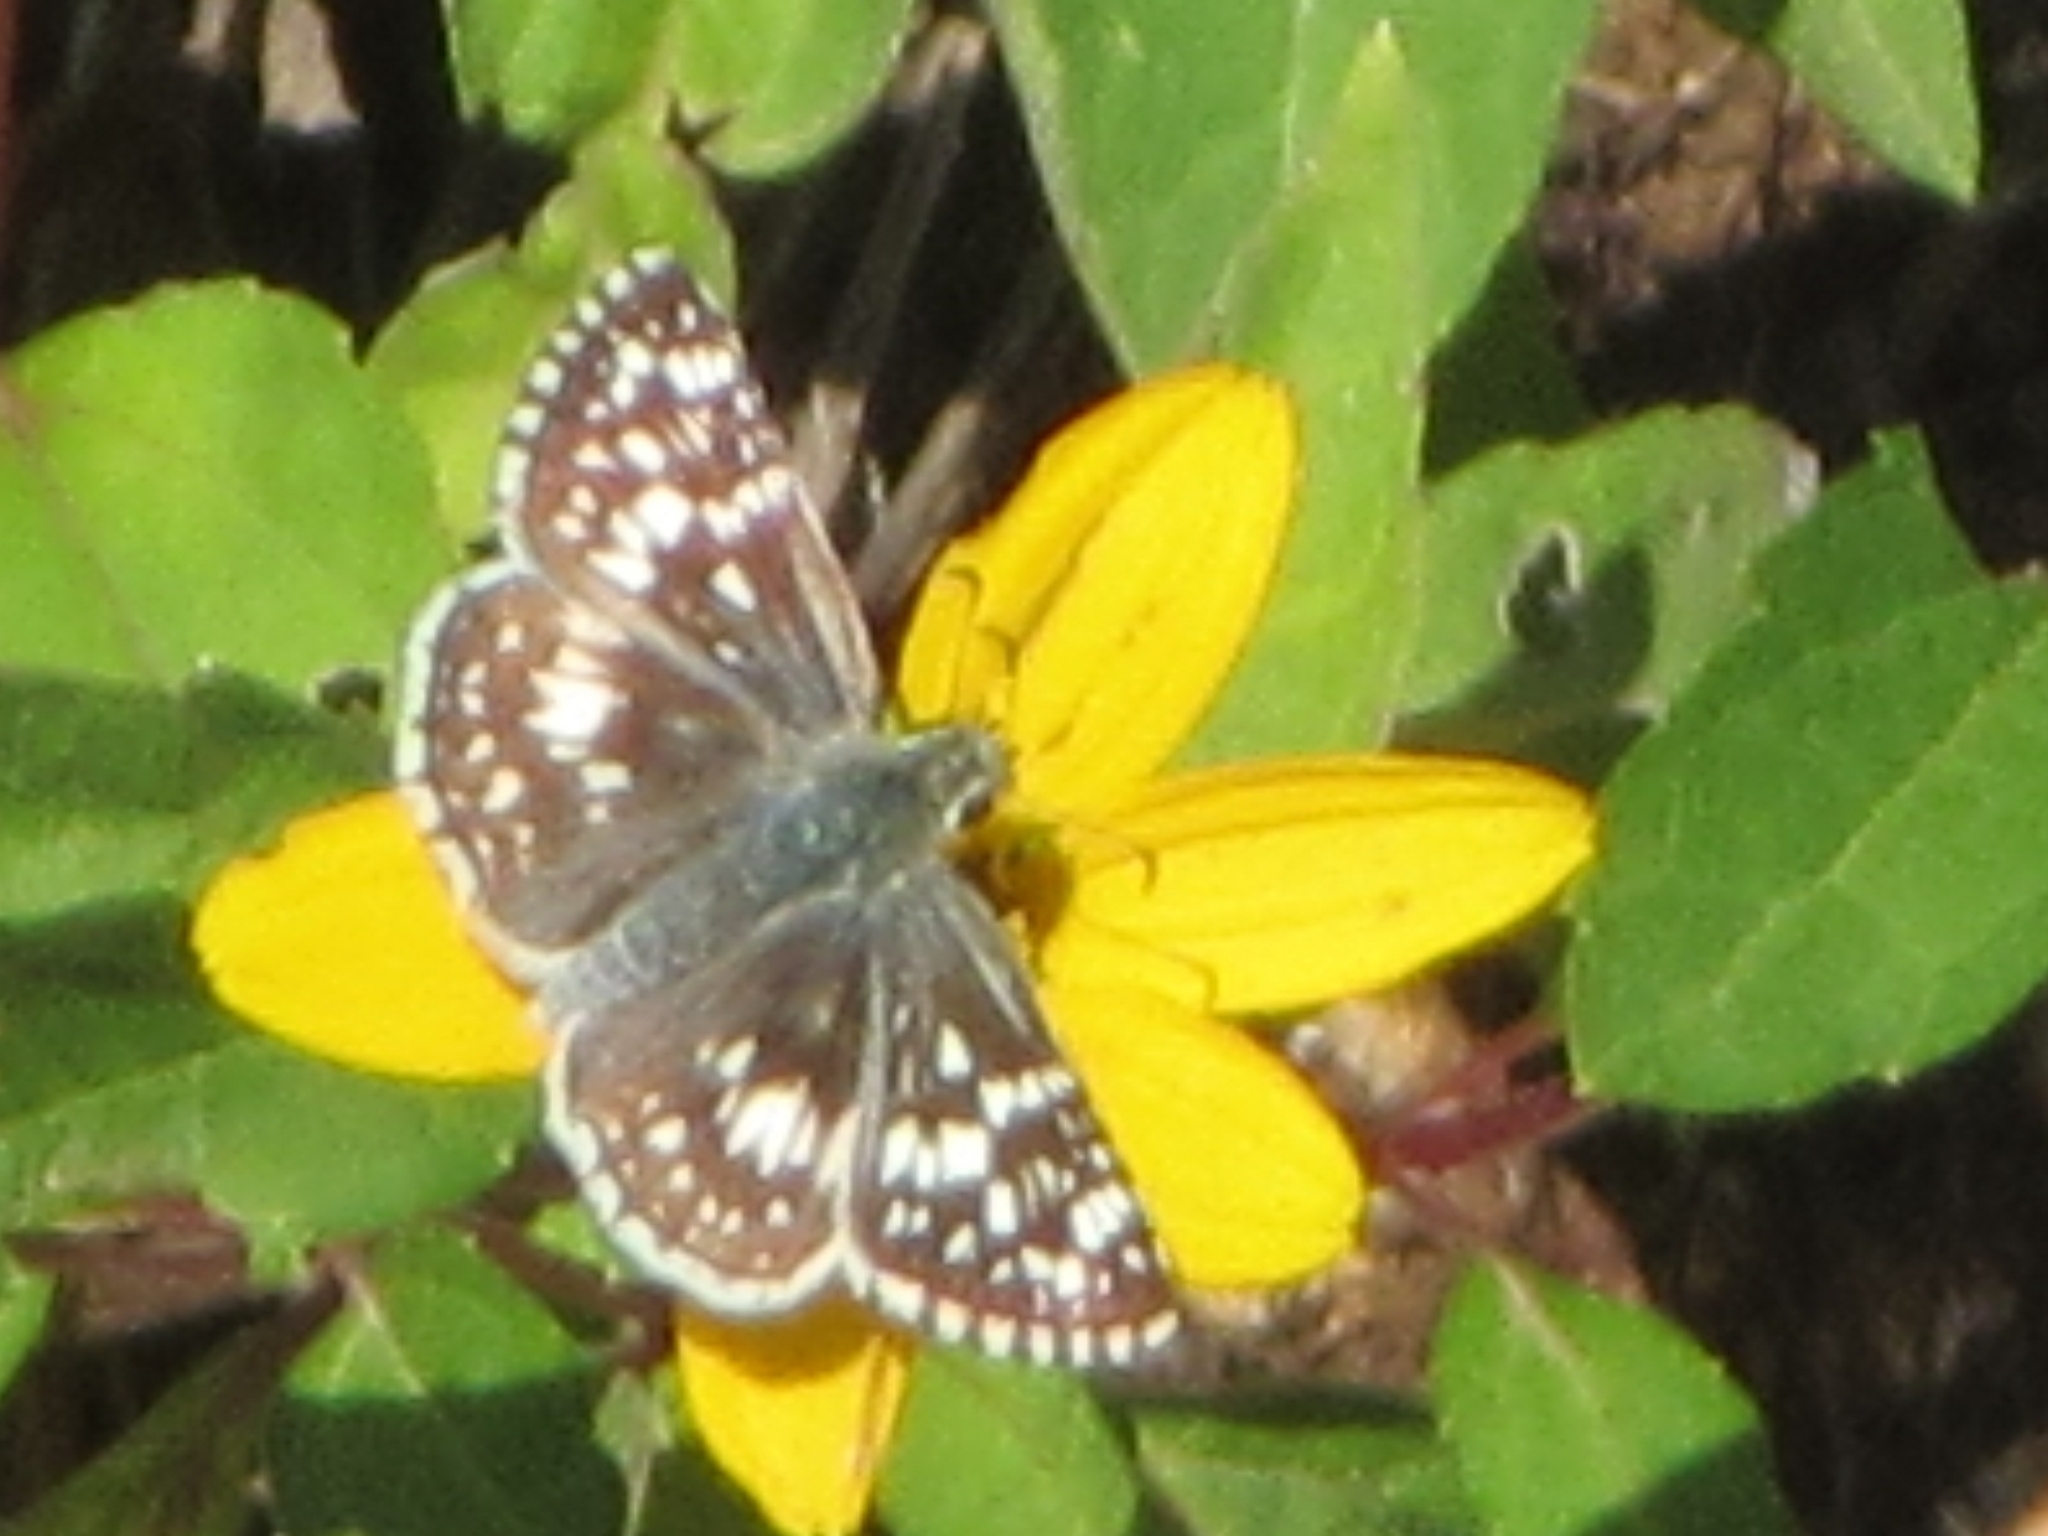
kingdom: Animalia
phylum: Arthropoda
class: Insecta
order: Lepidoptera
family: Hesperiidae
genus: Burnsius
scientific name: Burnsius communis
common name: Common checkered-skipper
